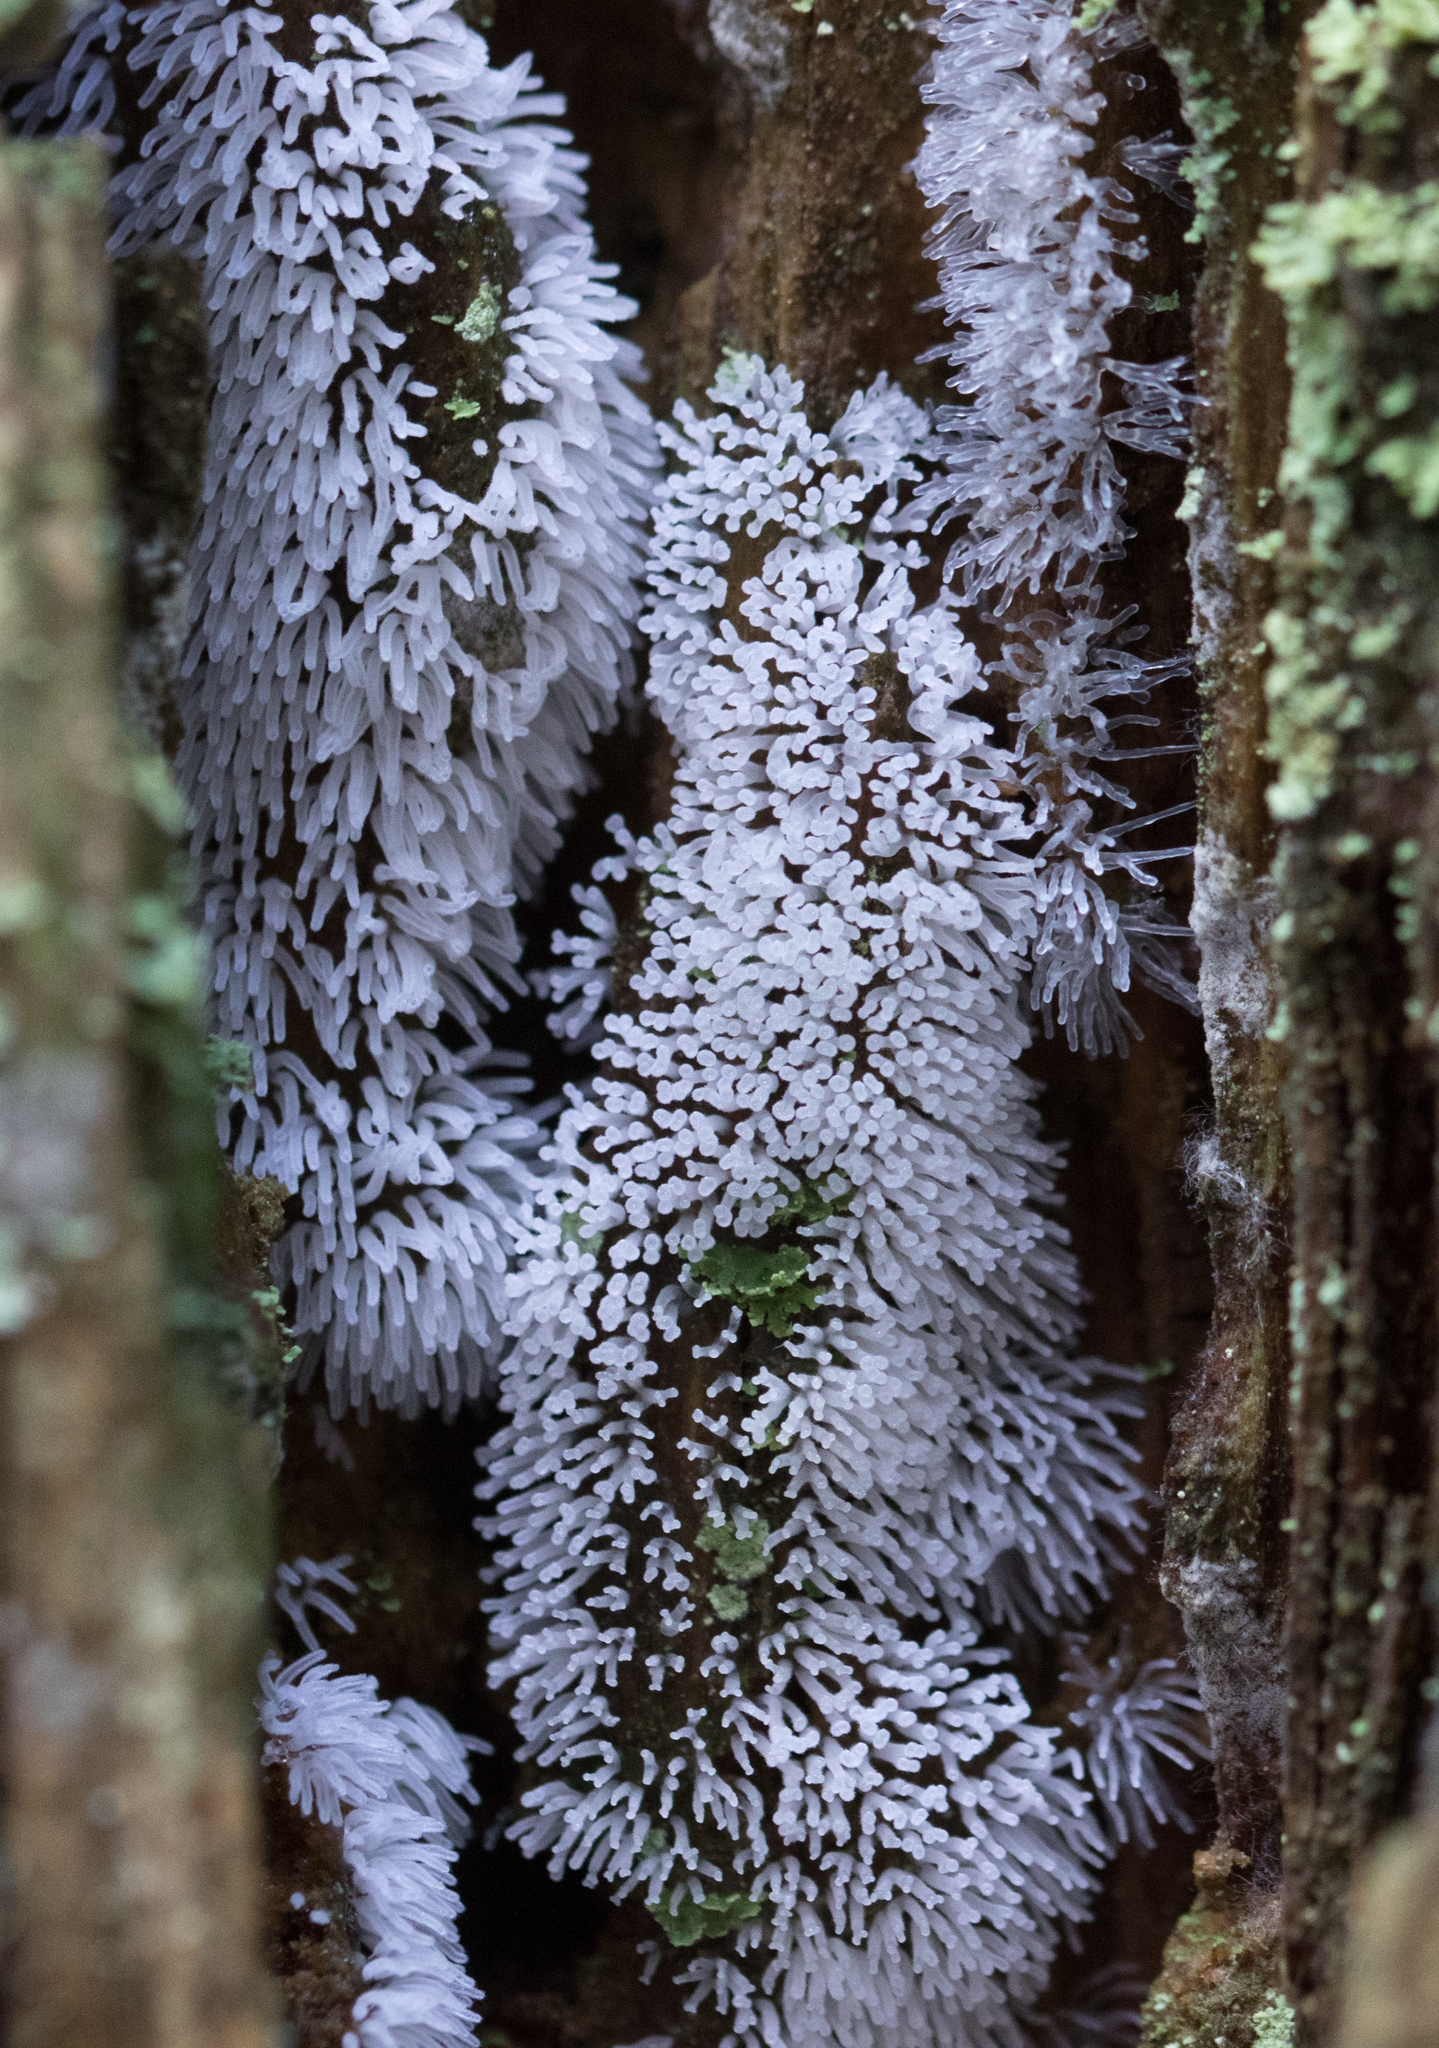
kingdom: Protozoa
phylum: Mycetozoa
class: Protosteliomycetes
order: Ceratiomyxales
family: Ceratiomyxaceae
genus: Ceratiomyxa
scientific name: Ceratiomyxa fruticulosa
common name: Honeycomb coral slime mold
